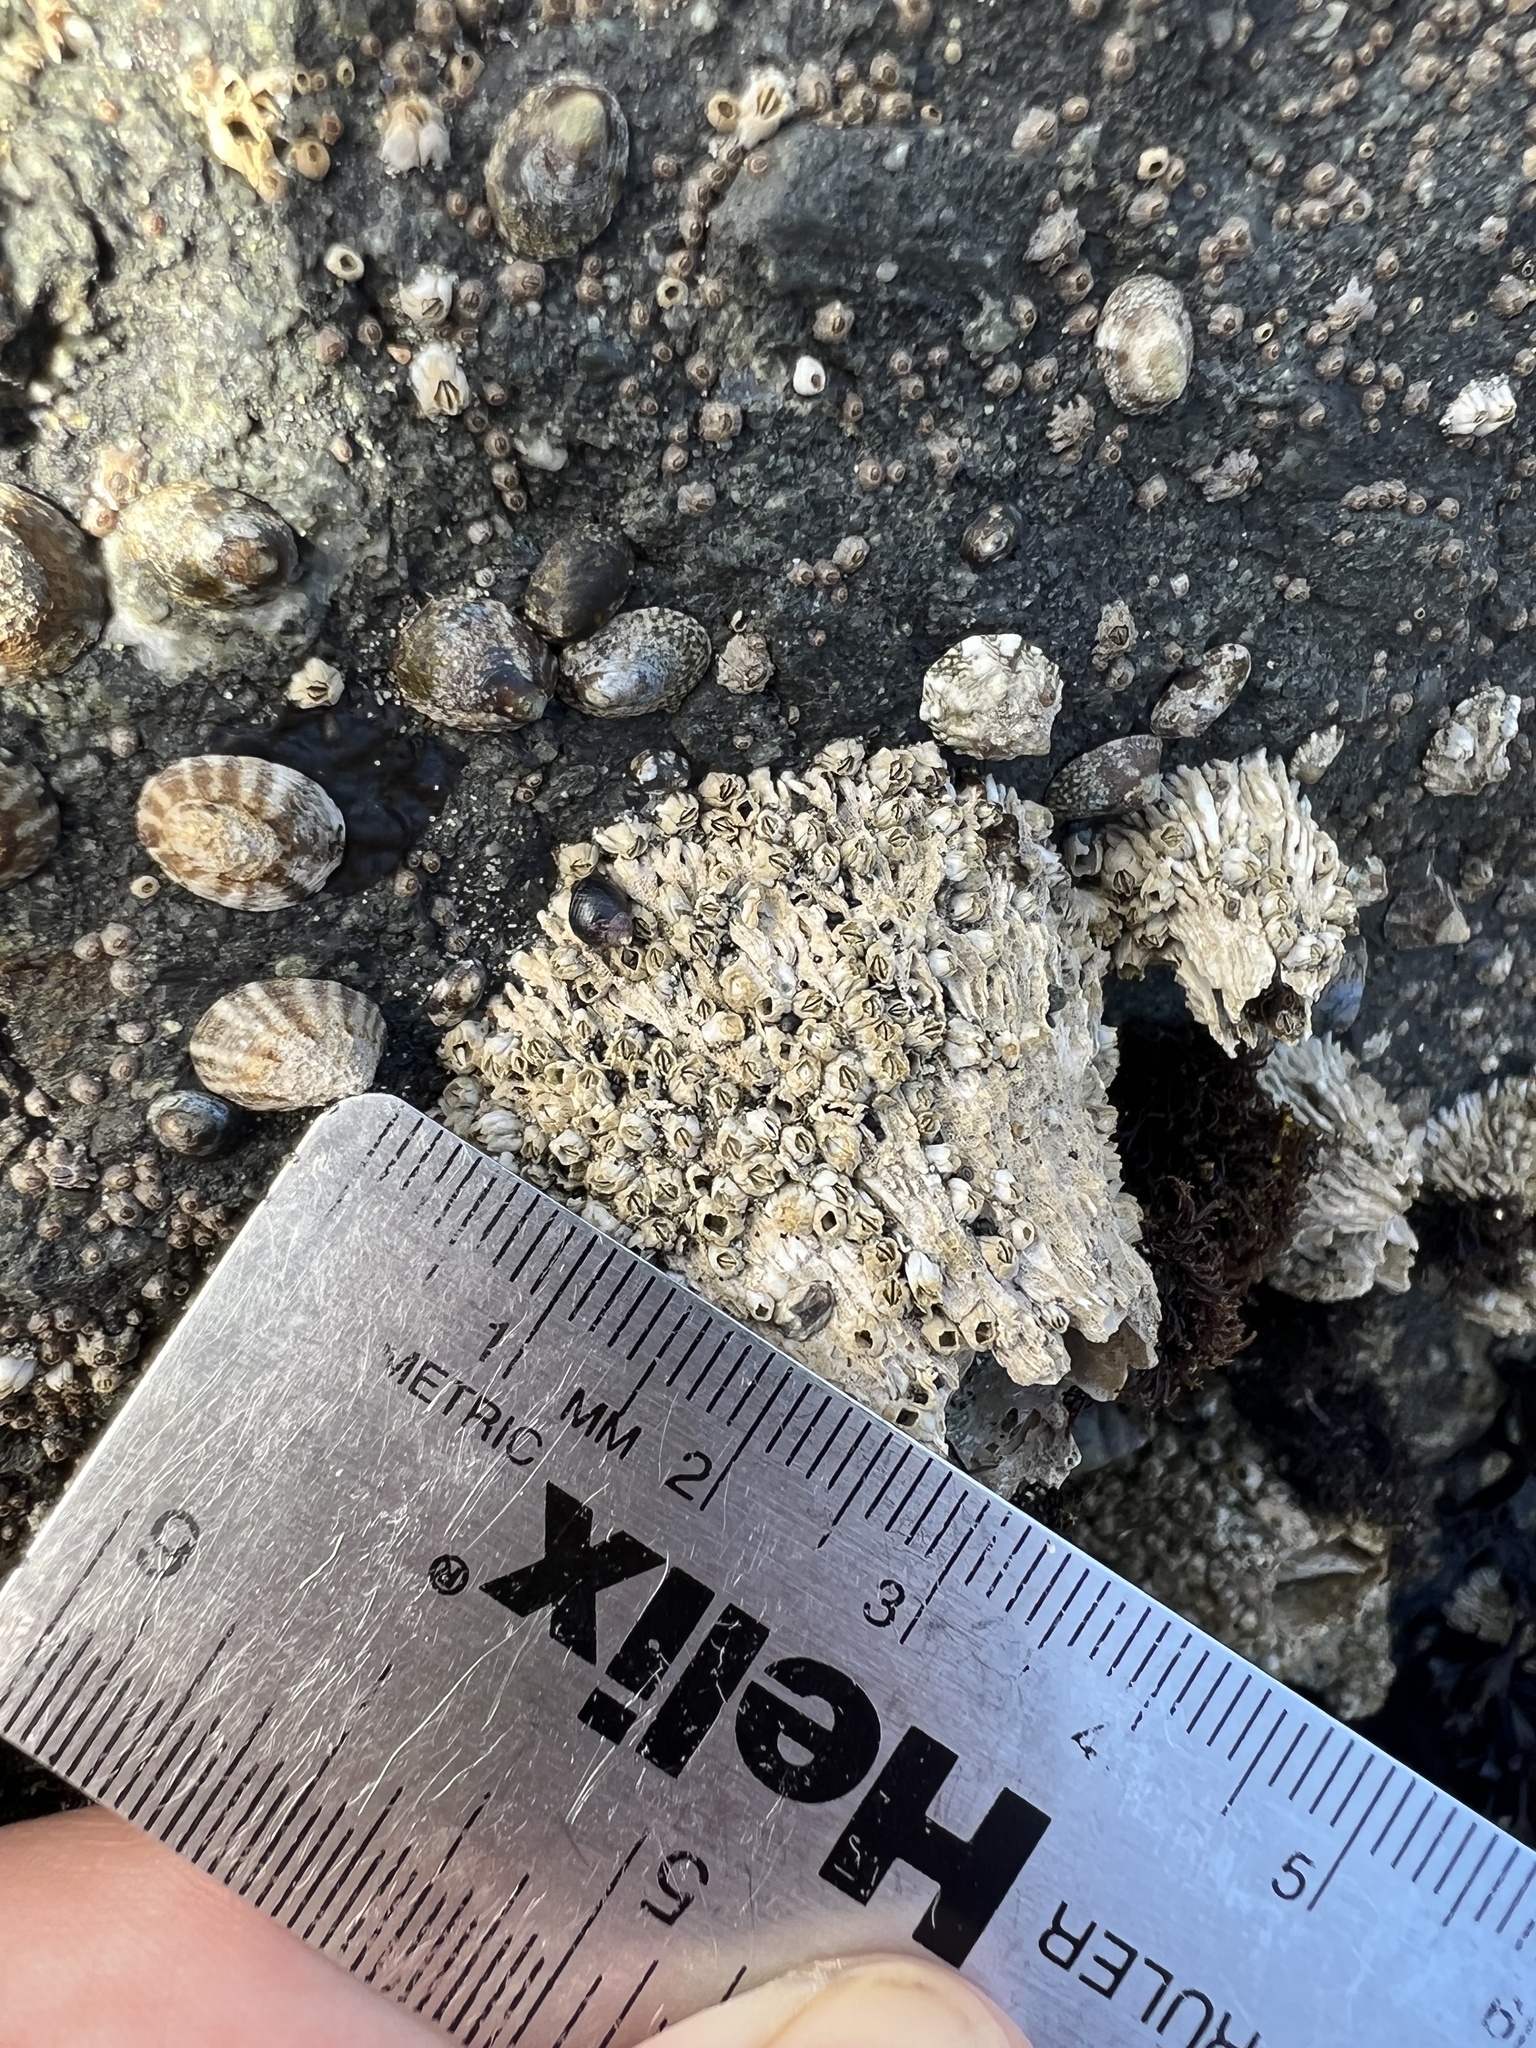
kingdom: Animalia
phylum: Arthropoda
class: Maxillopoda
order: Sessilia
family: Archaeobalanidae
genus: Semibalanus
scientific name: Semibalanus cariosus
